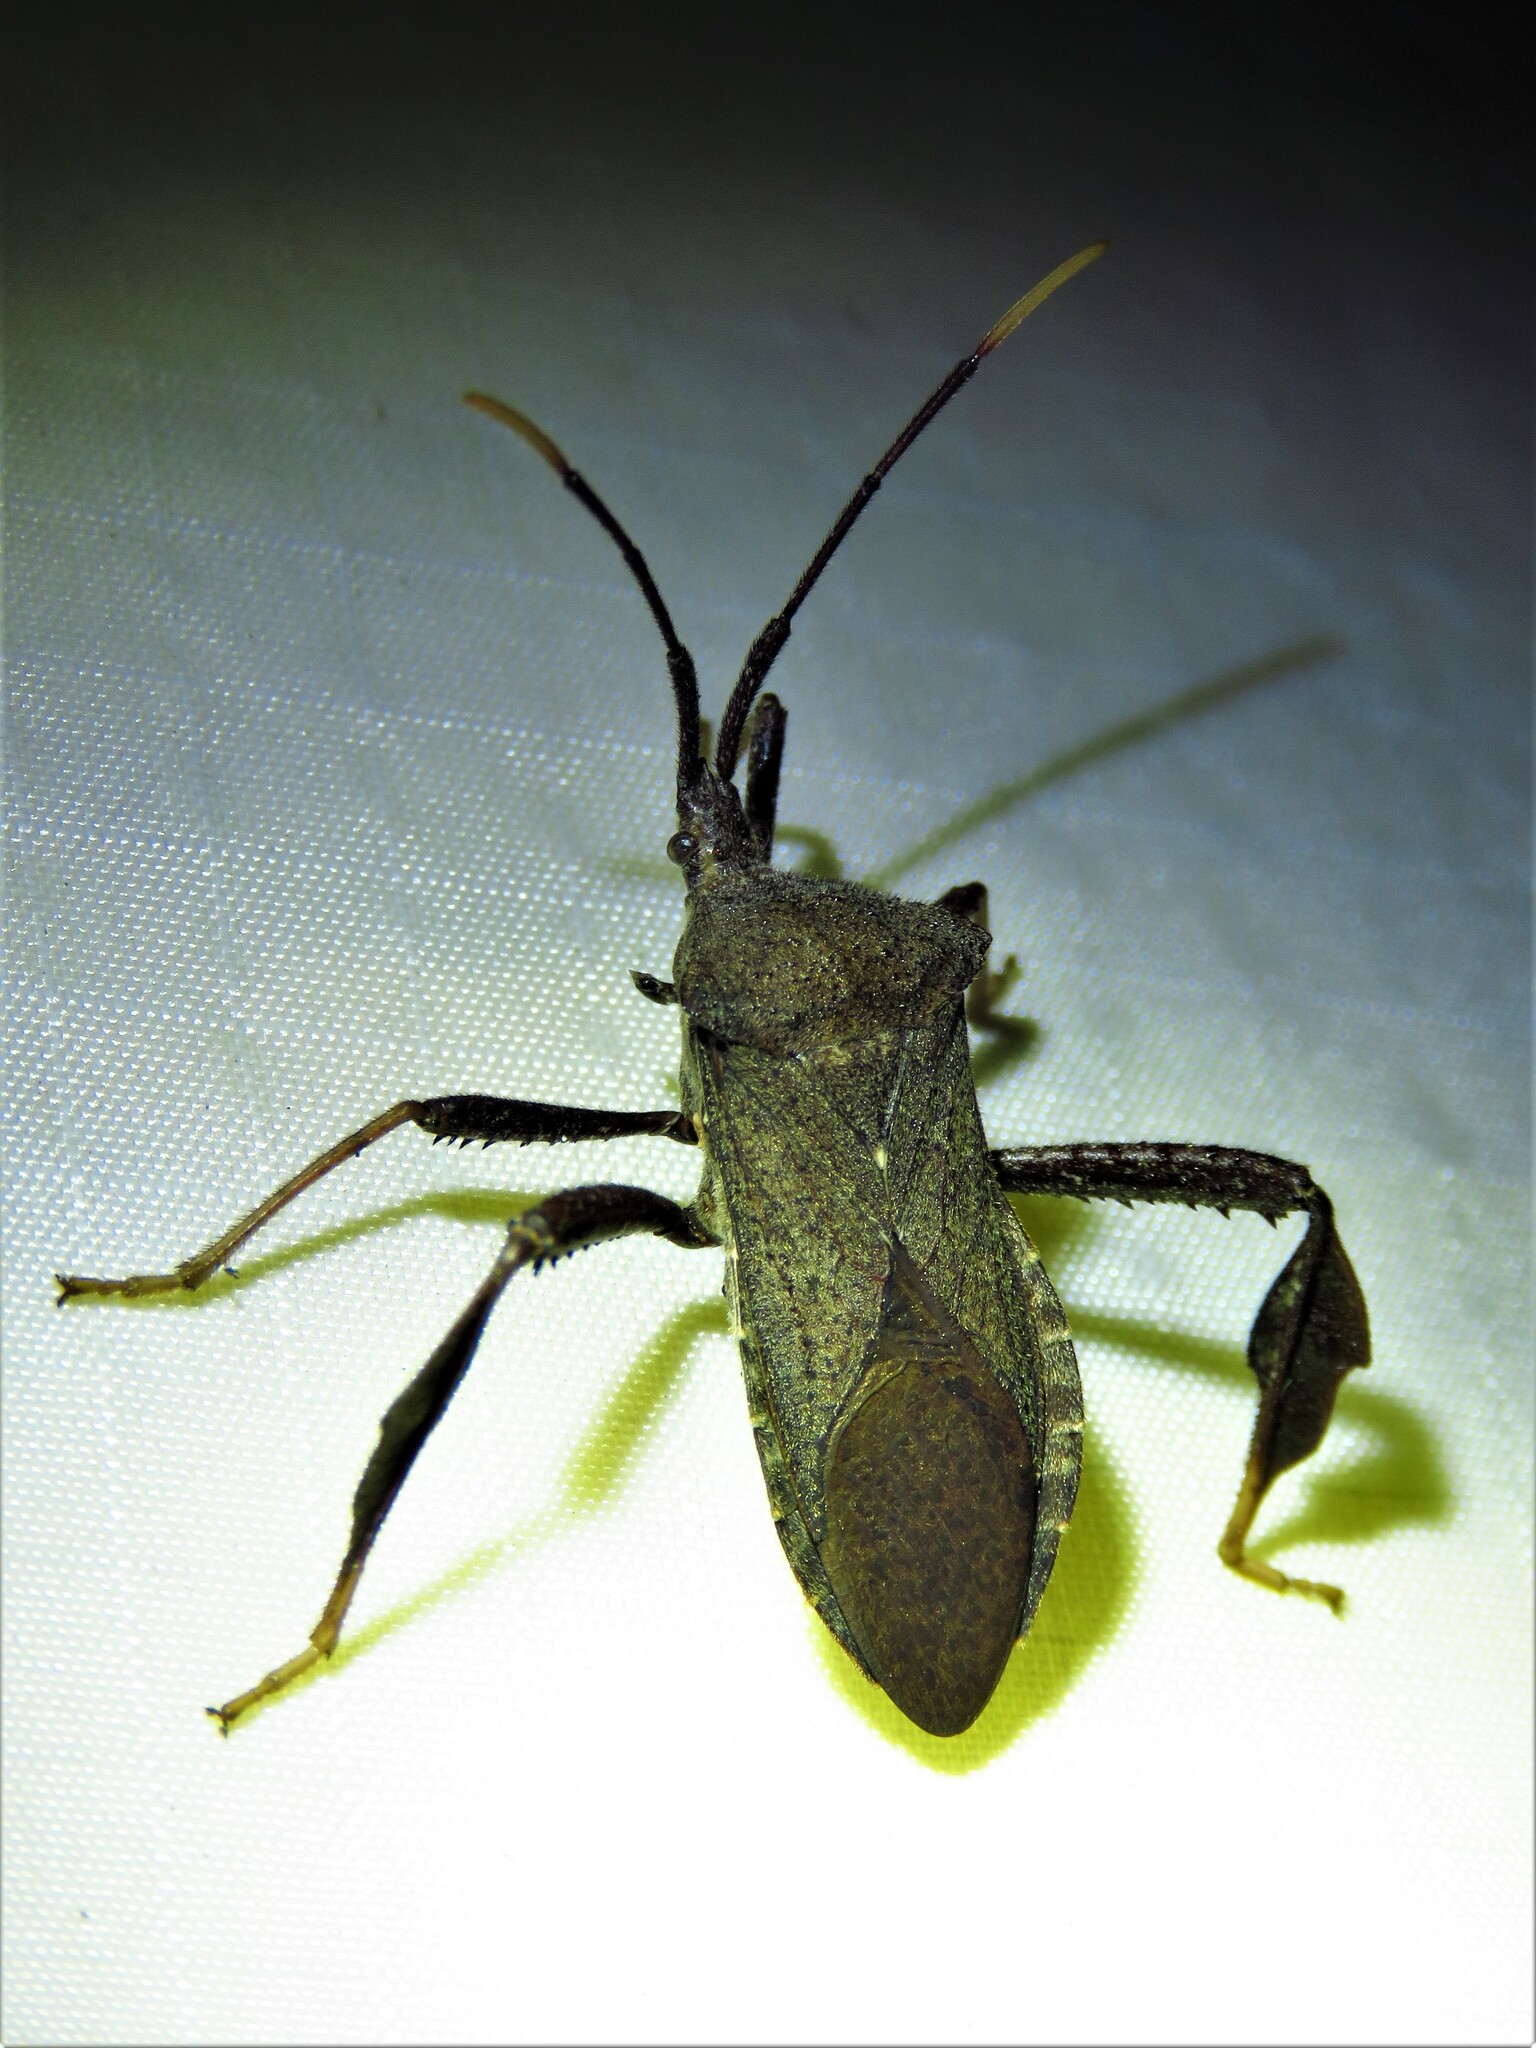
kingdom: Animalia
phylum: Arthropoda
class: Insecta
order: Hemiptera
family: Coreidae
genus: Acanthocephala
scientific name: Acanthocephala terminalis
